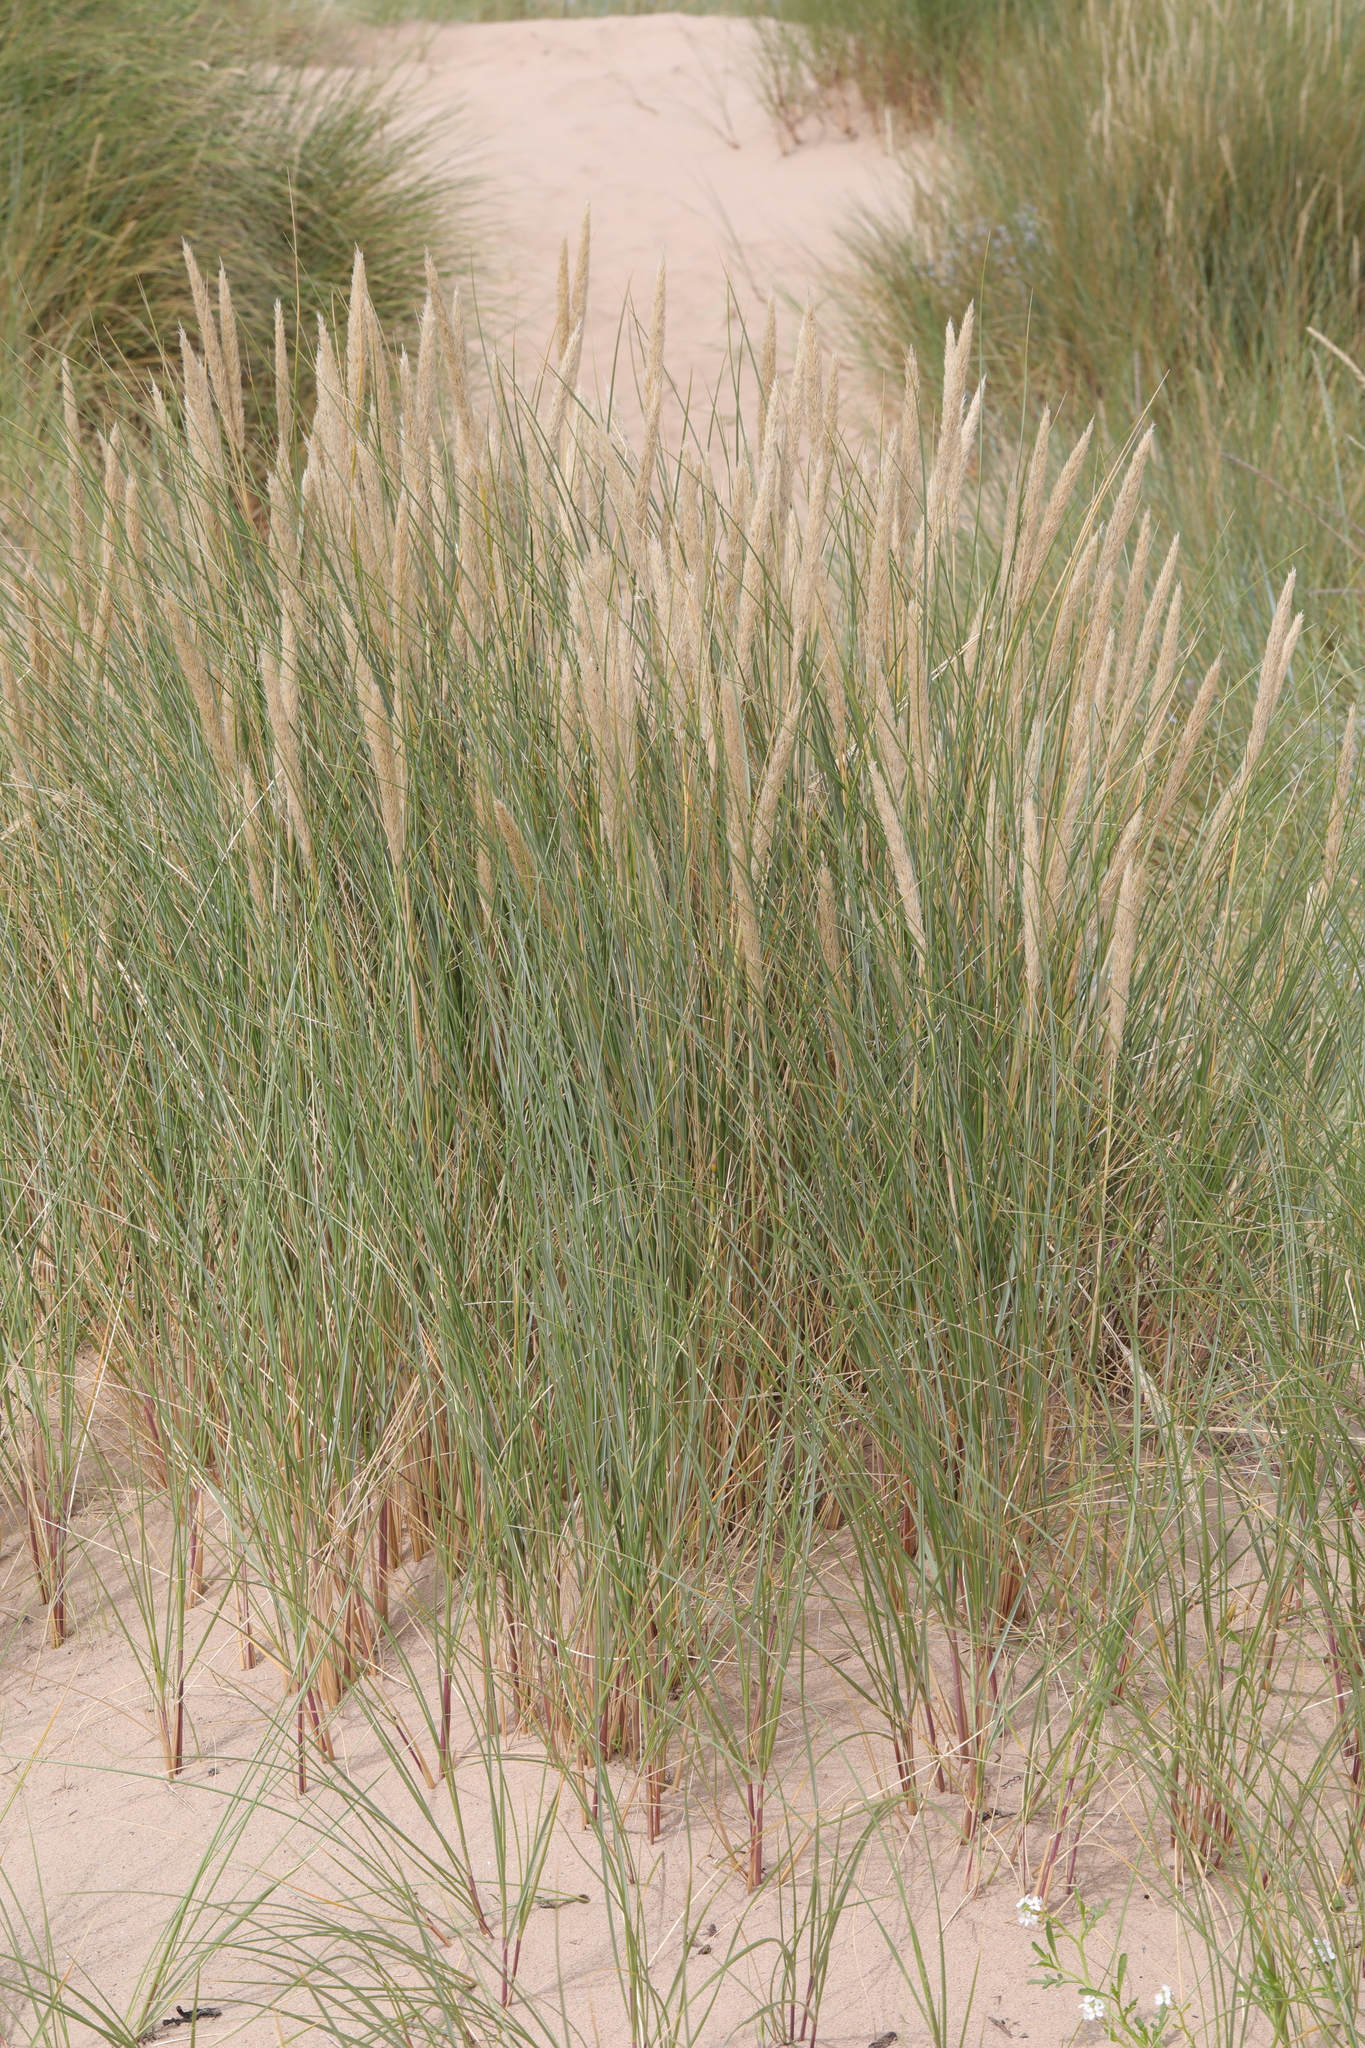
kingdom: Plantae
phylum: Tracheophyta
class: Liliopsida
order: Poales
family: Poaceae
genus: Calamagrostis
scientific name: Calamagrostis arenaria
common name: European beachgrass
